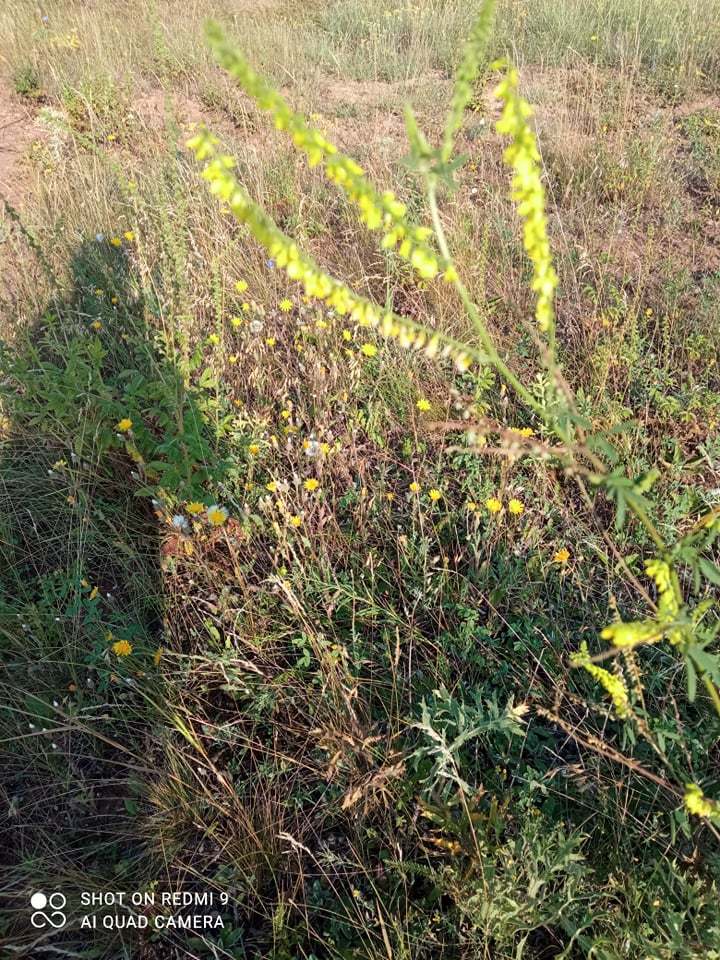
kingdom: Plantae
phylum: Tracheophyta
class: Magnoliopsida
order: Fabales
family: Fabaceae
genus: Melilotus
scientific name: Melilotus officinalis
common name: Sweetclover
